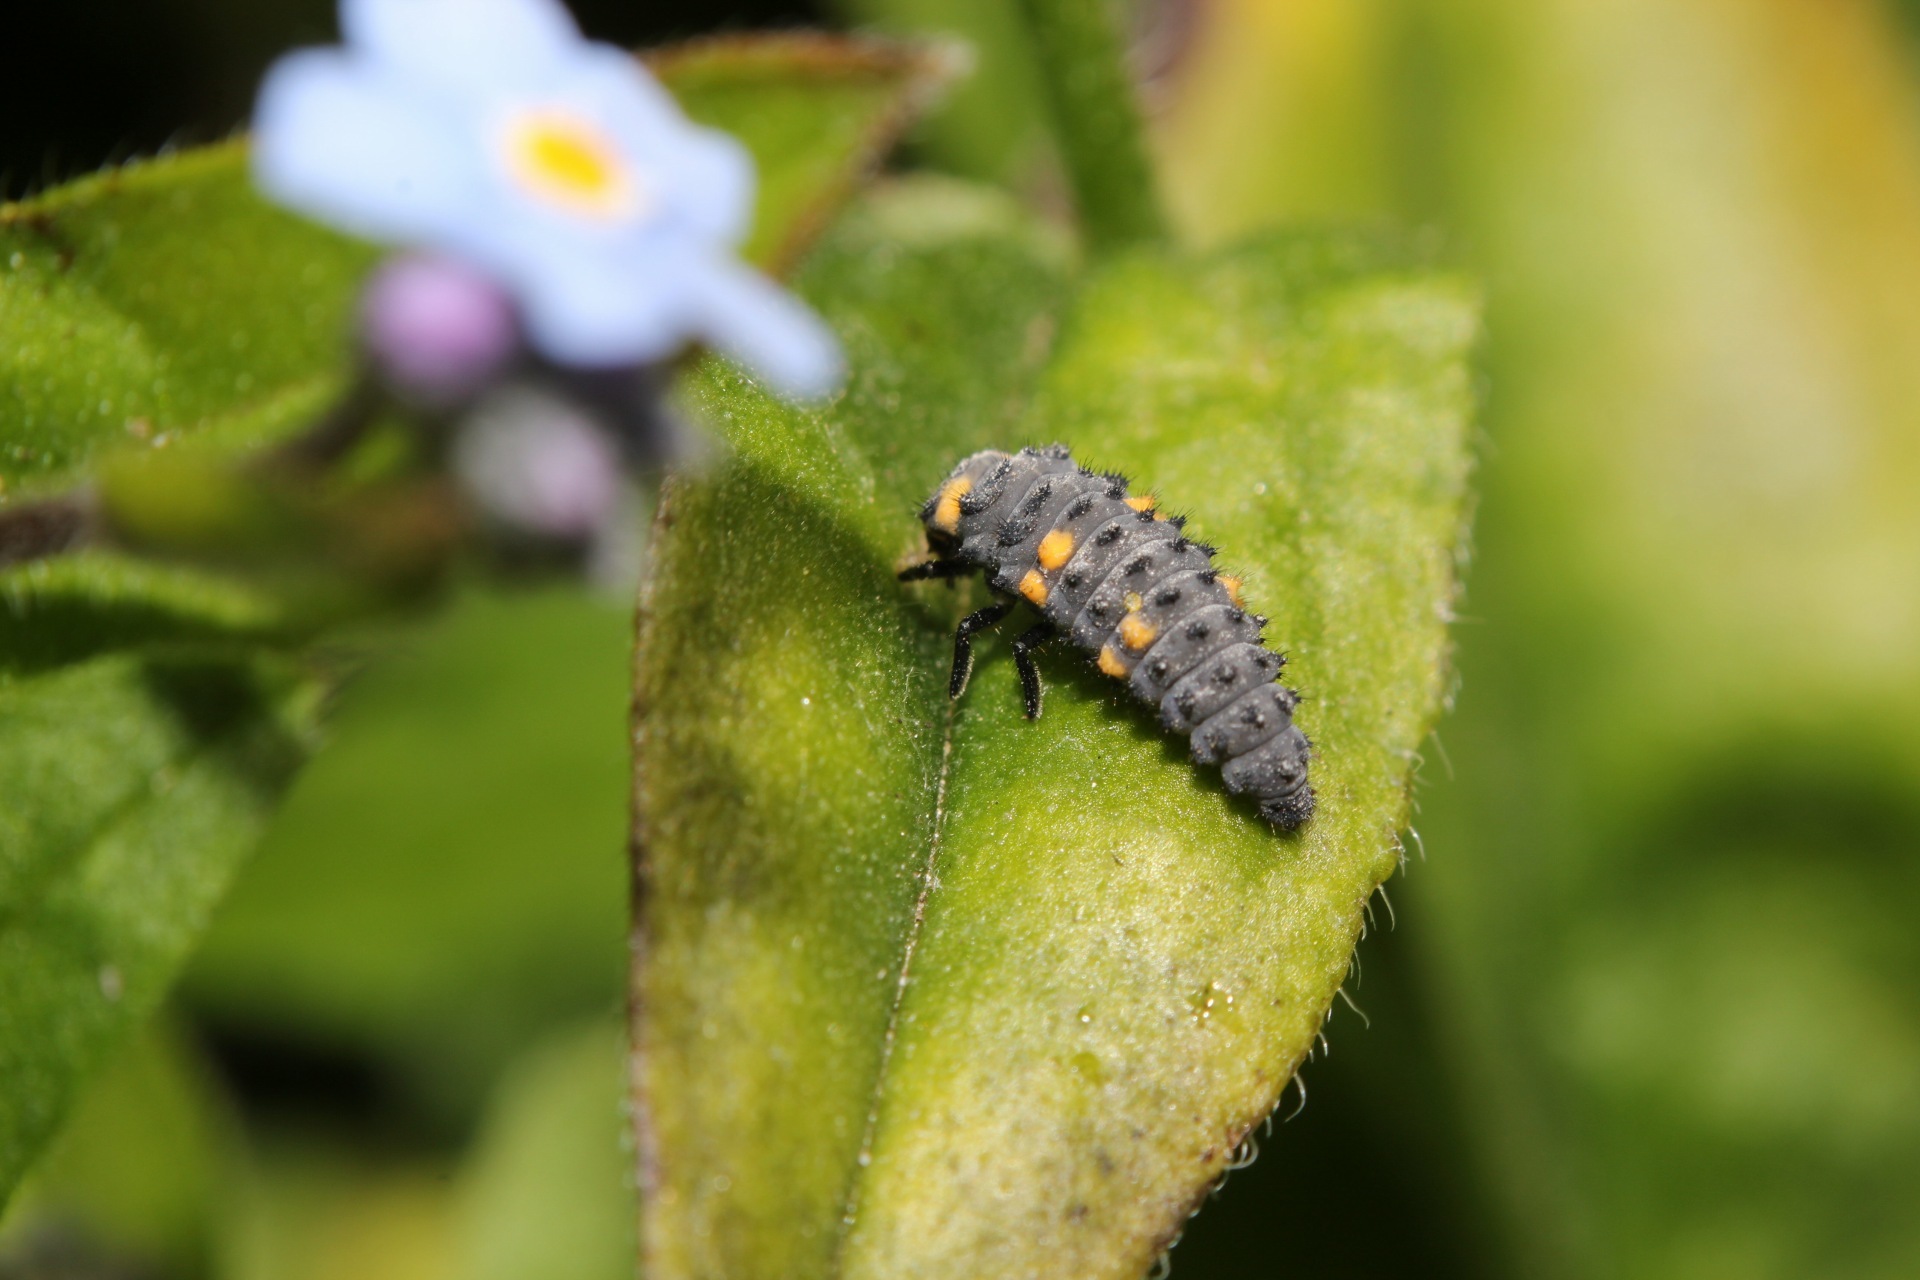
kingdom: Animalia
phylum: Arthropoda
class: Insecta
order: Coleoptera
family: Coccinellidae
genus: Coccinella
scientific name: Coccinella septempunctata
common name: Sevenspotted lady beetle
